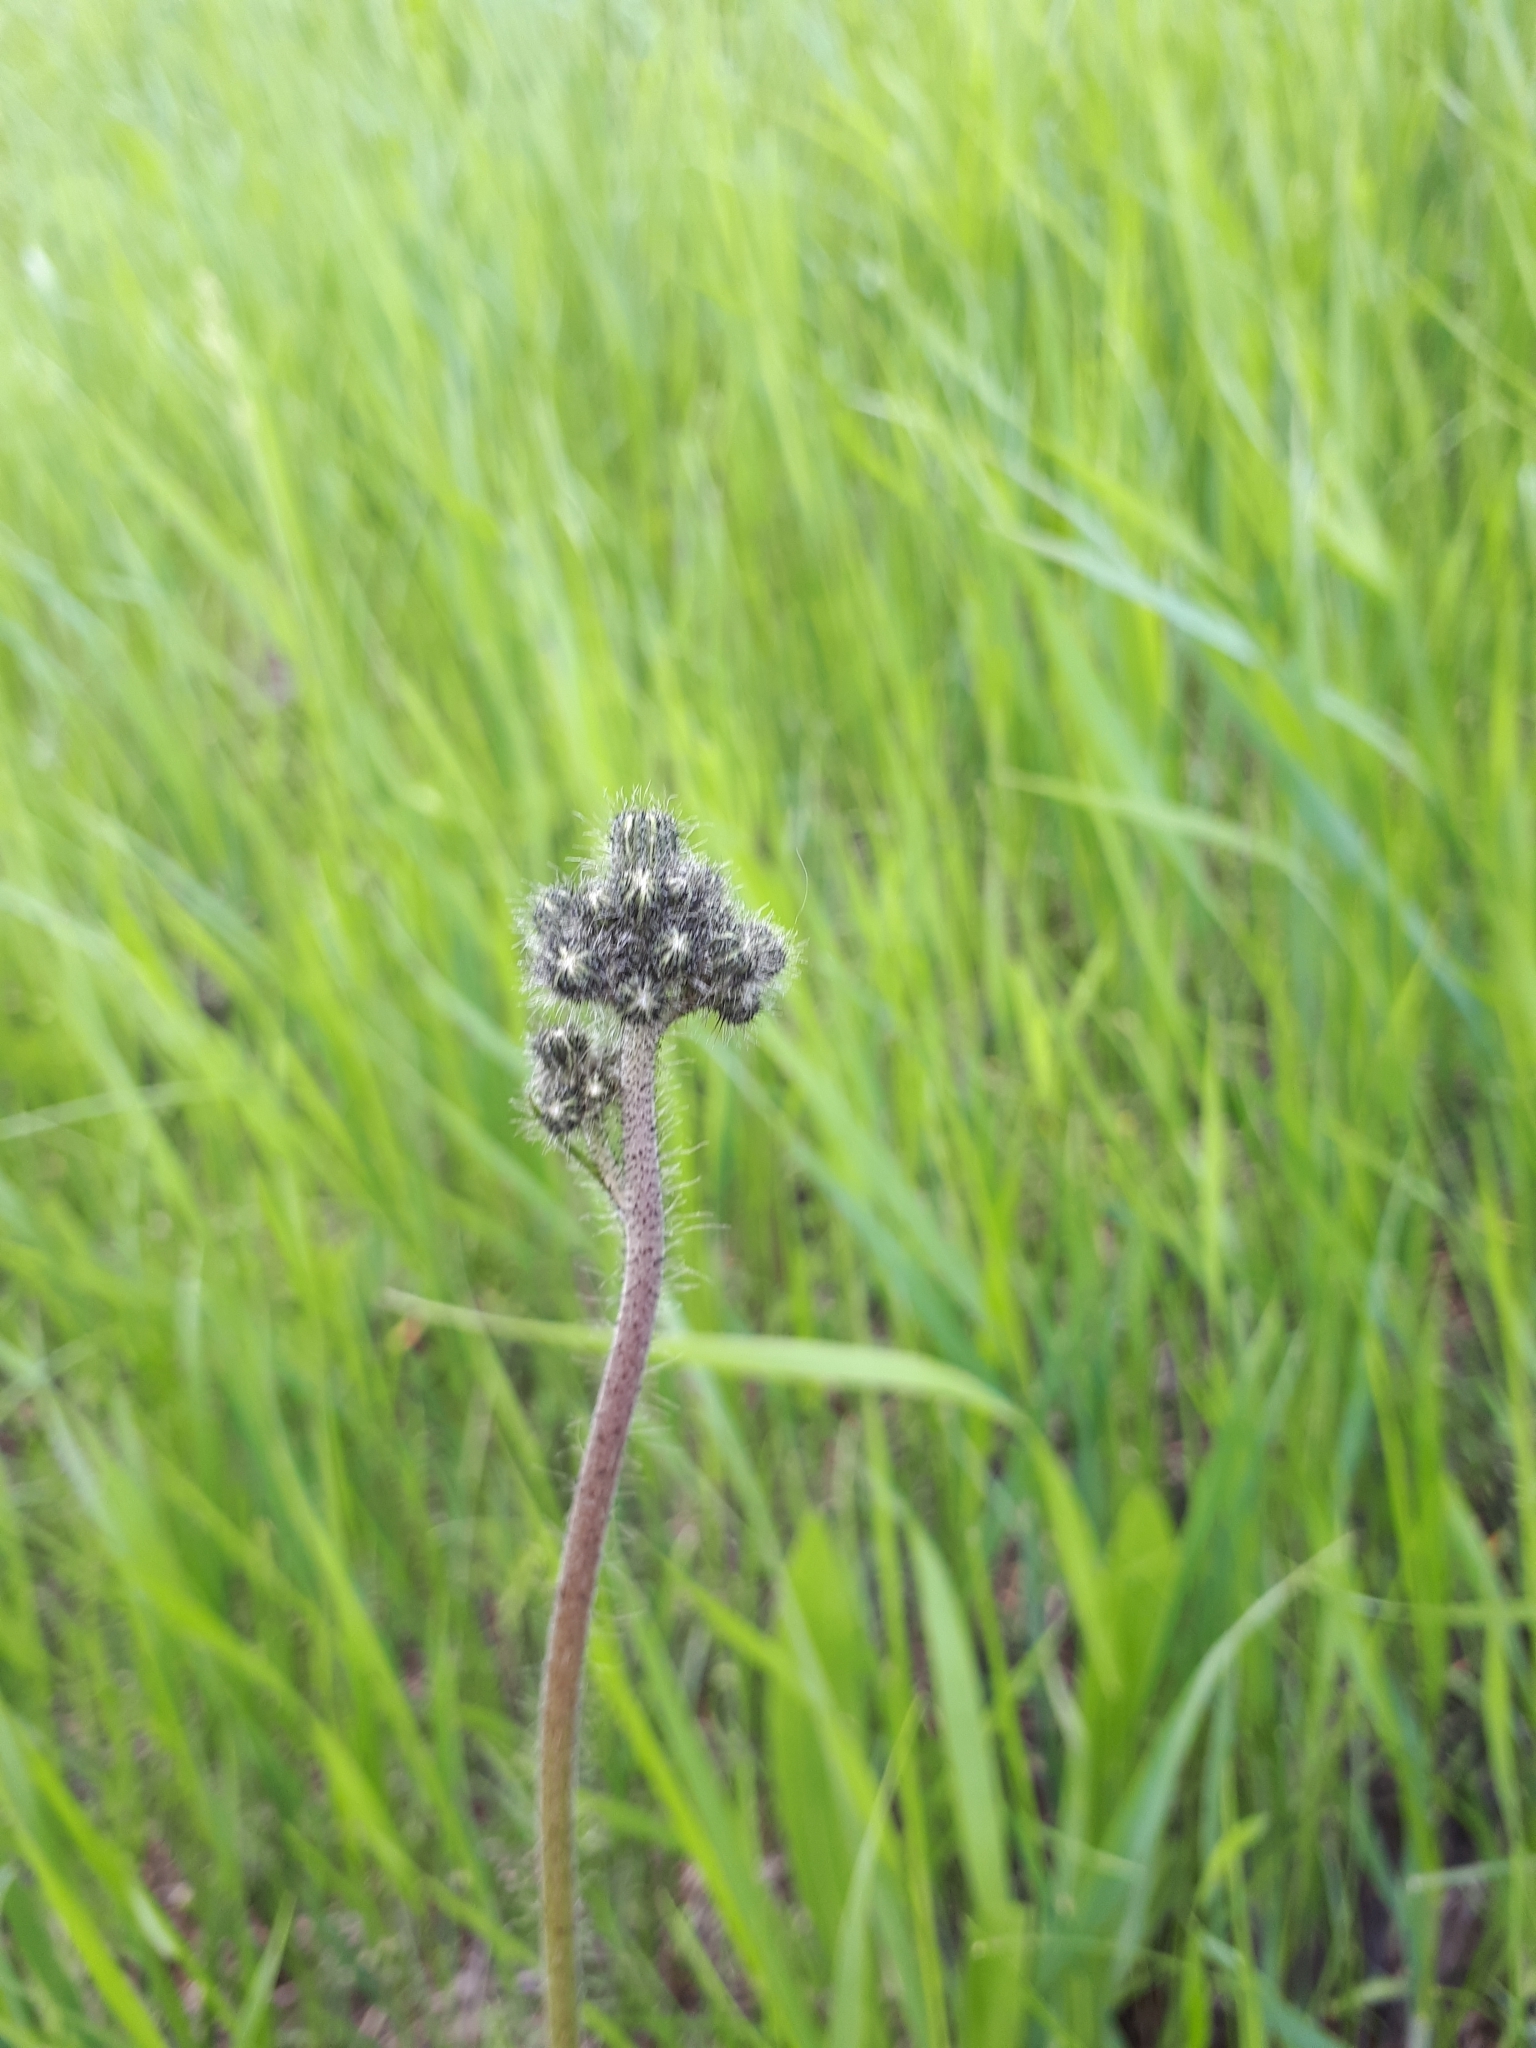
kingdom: Plantae
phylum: Tracheophyta
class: Magnoliopsida
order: Asterales
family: Asteraceae
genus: Pilosella
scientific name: Pilosella
